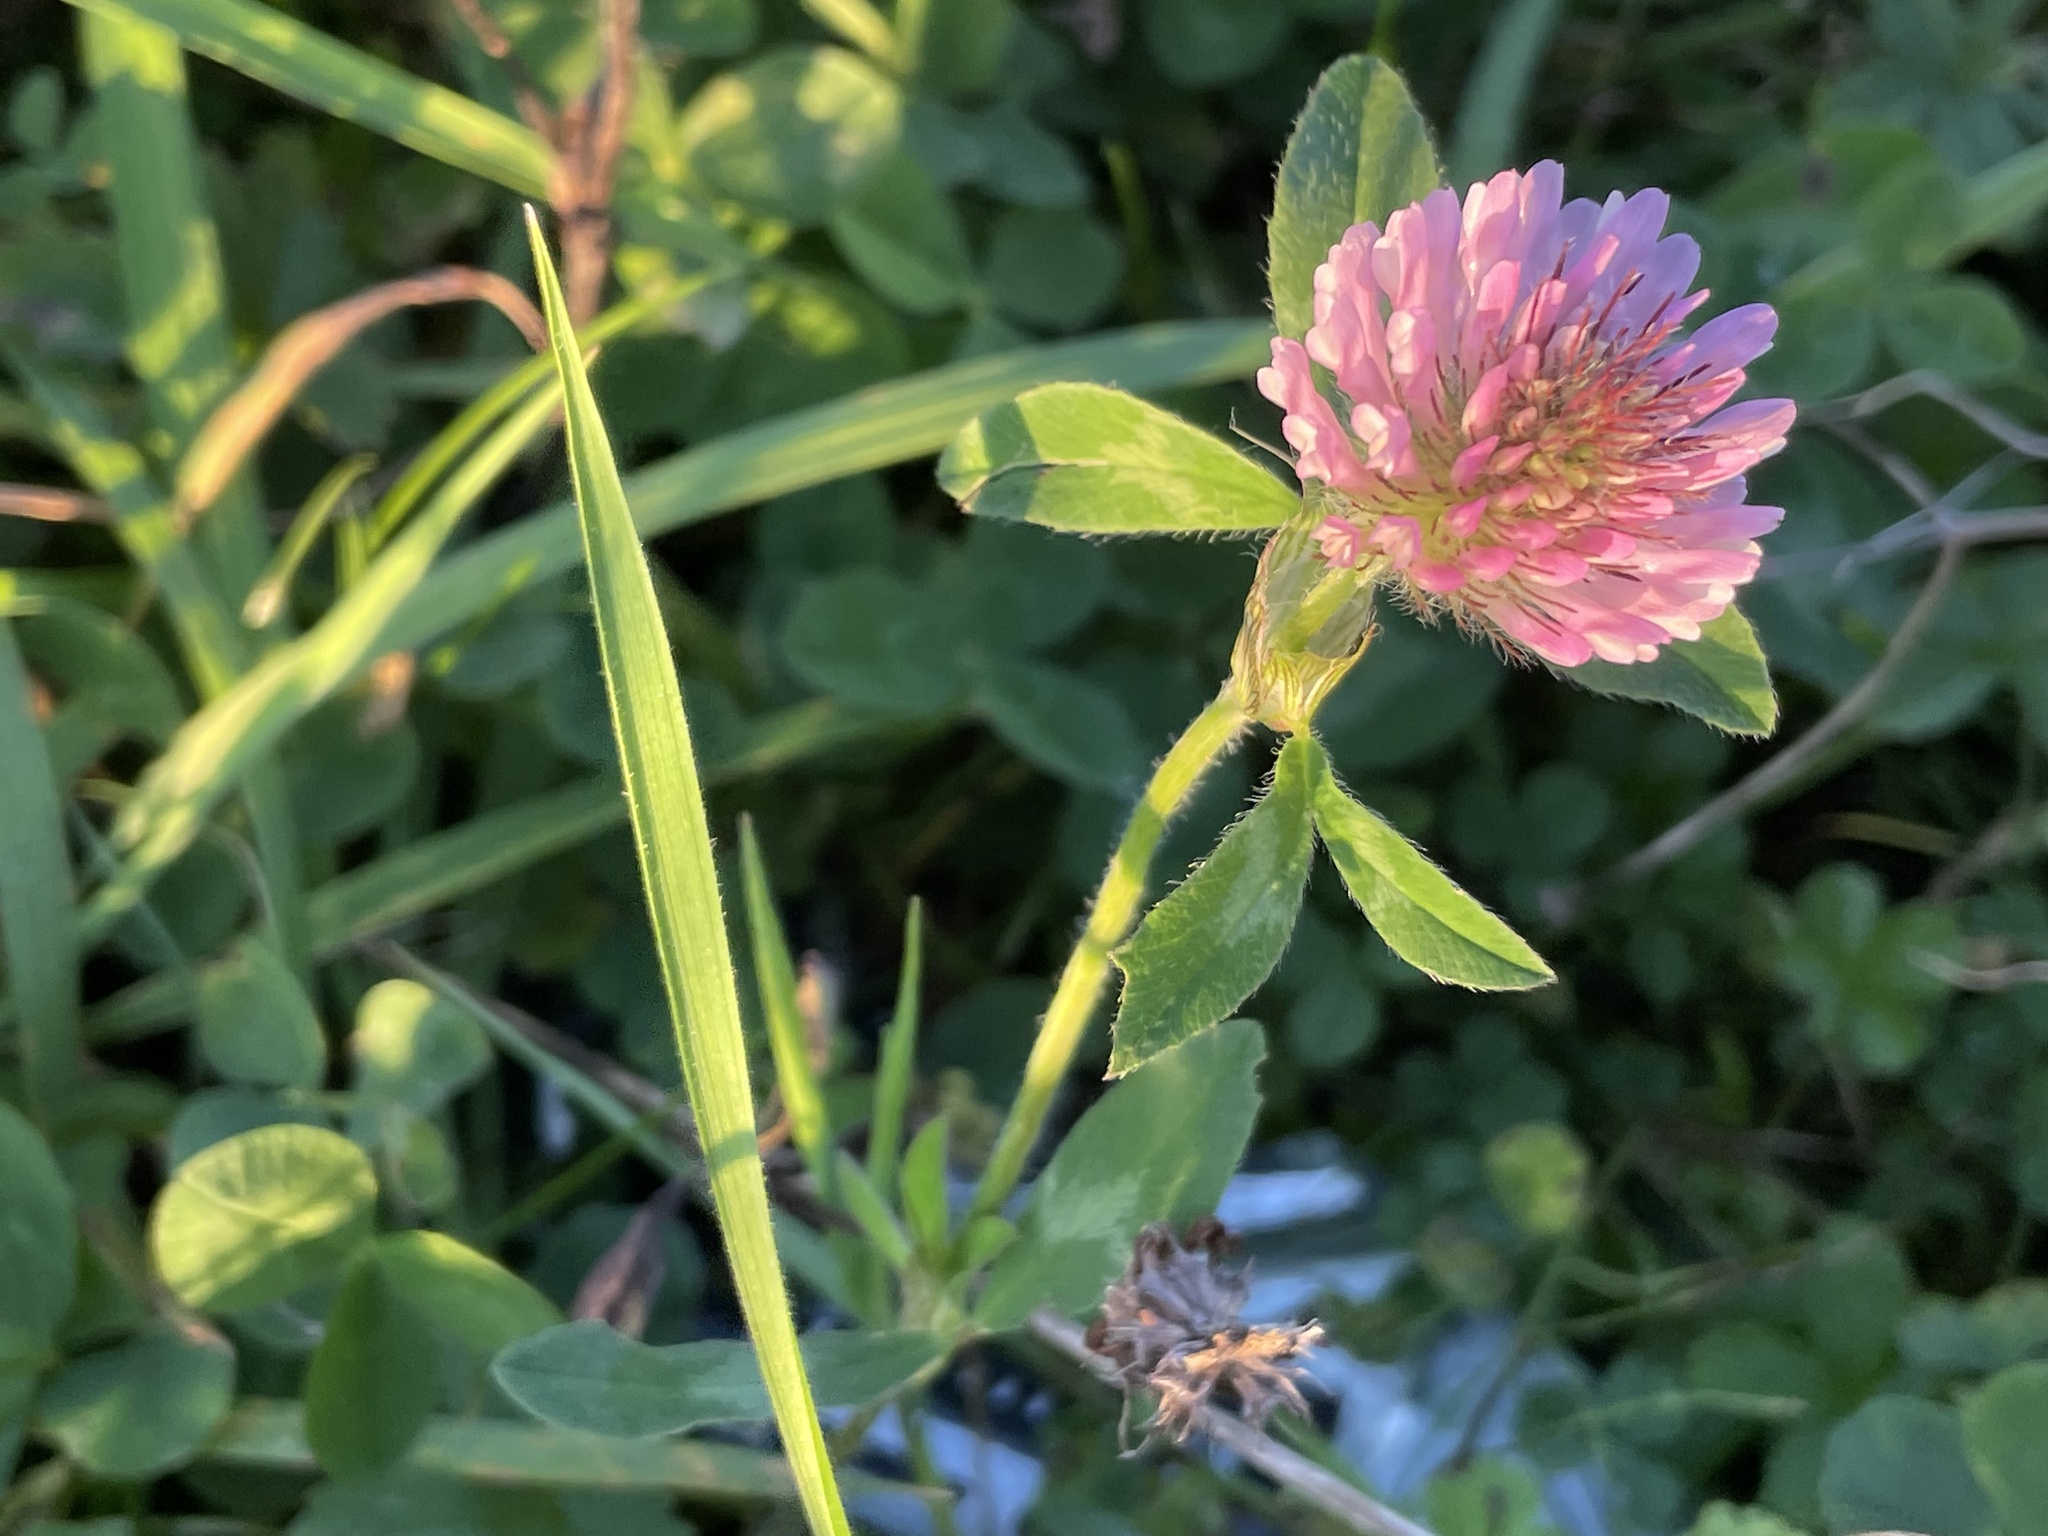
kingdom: Plantae
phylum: Tracheophyta
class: Magnoliopsida
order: Fabales
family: Fabaceae
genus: Trifolium
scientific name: Trifolium pratense
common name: Red clover
